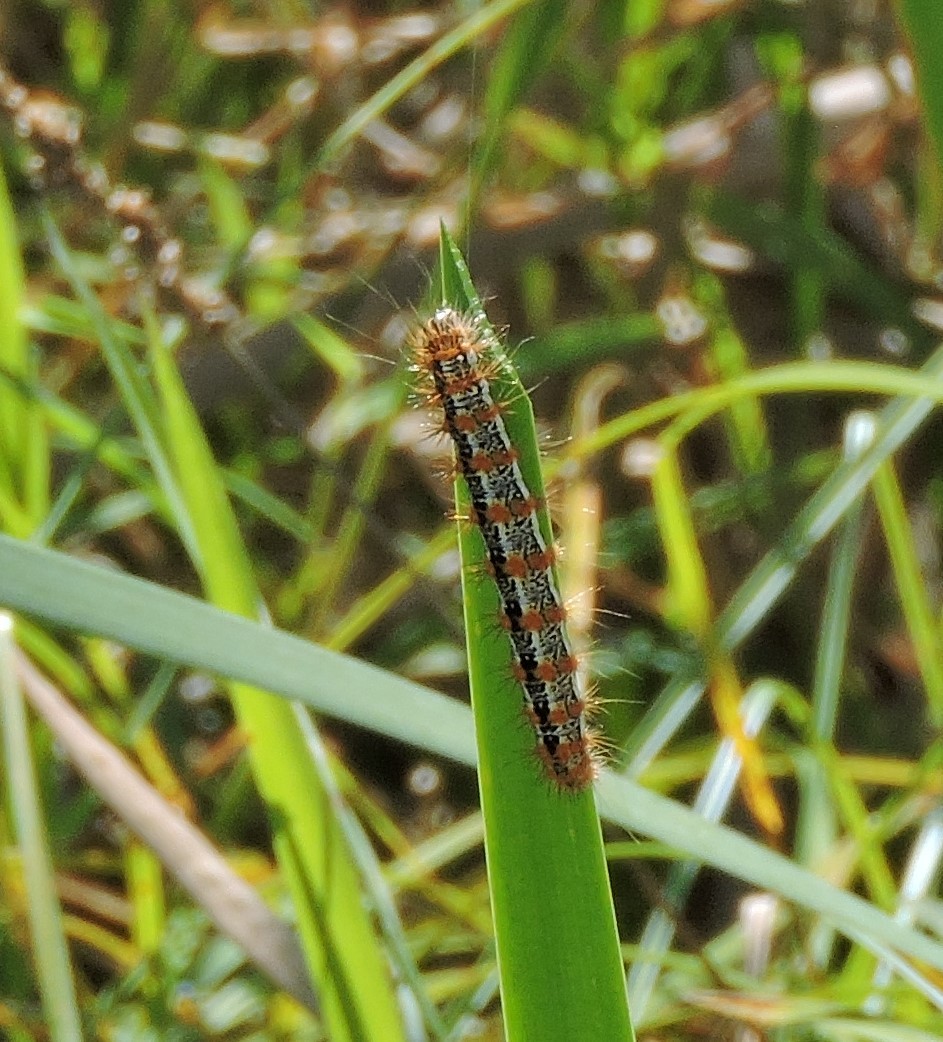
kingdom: Animalia
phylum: Arthropoda
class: Insecta
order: Lepidoptera
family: Noctuidae
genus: Acronicta
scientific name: Acronicta insularis
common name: Henry's marsh moth
